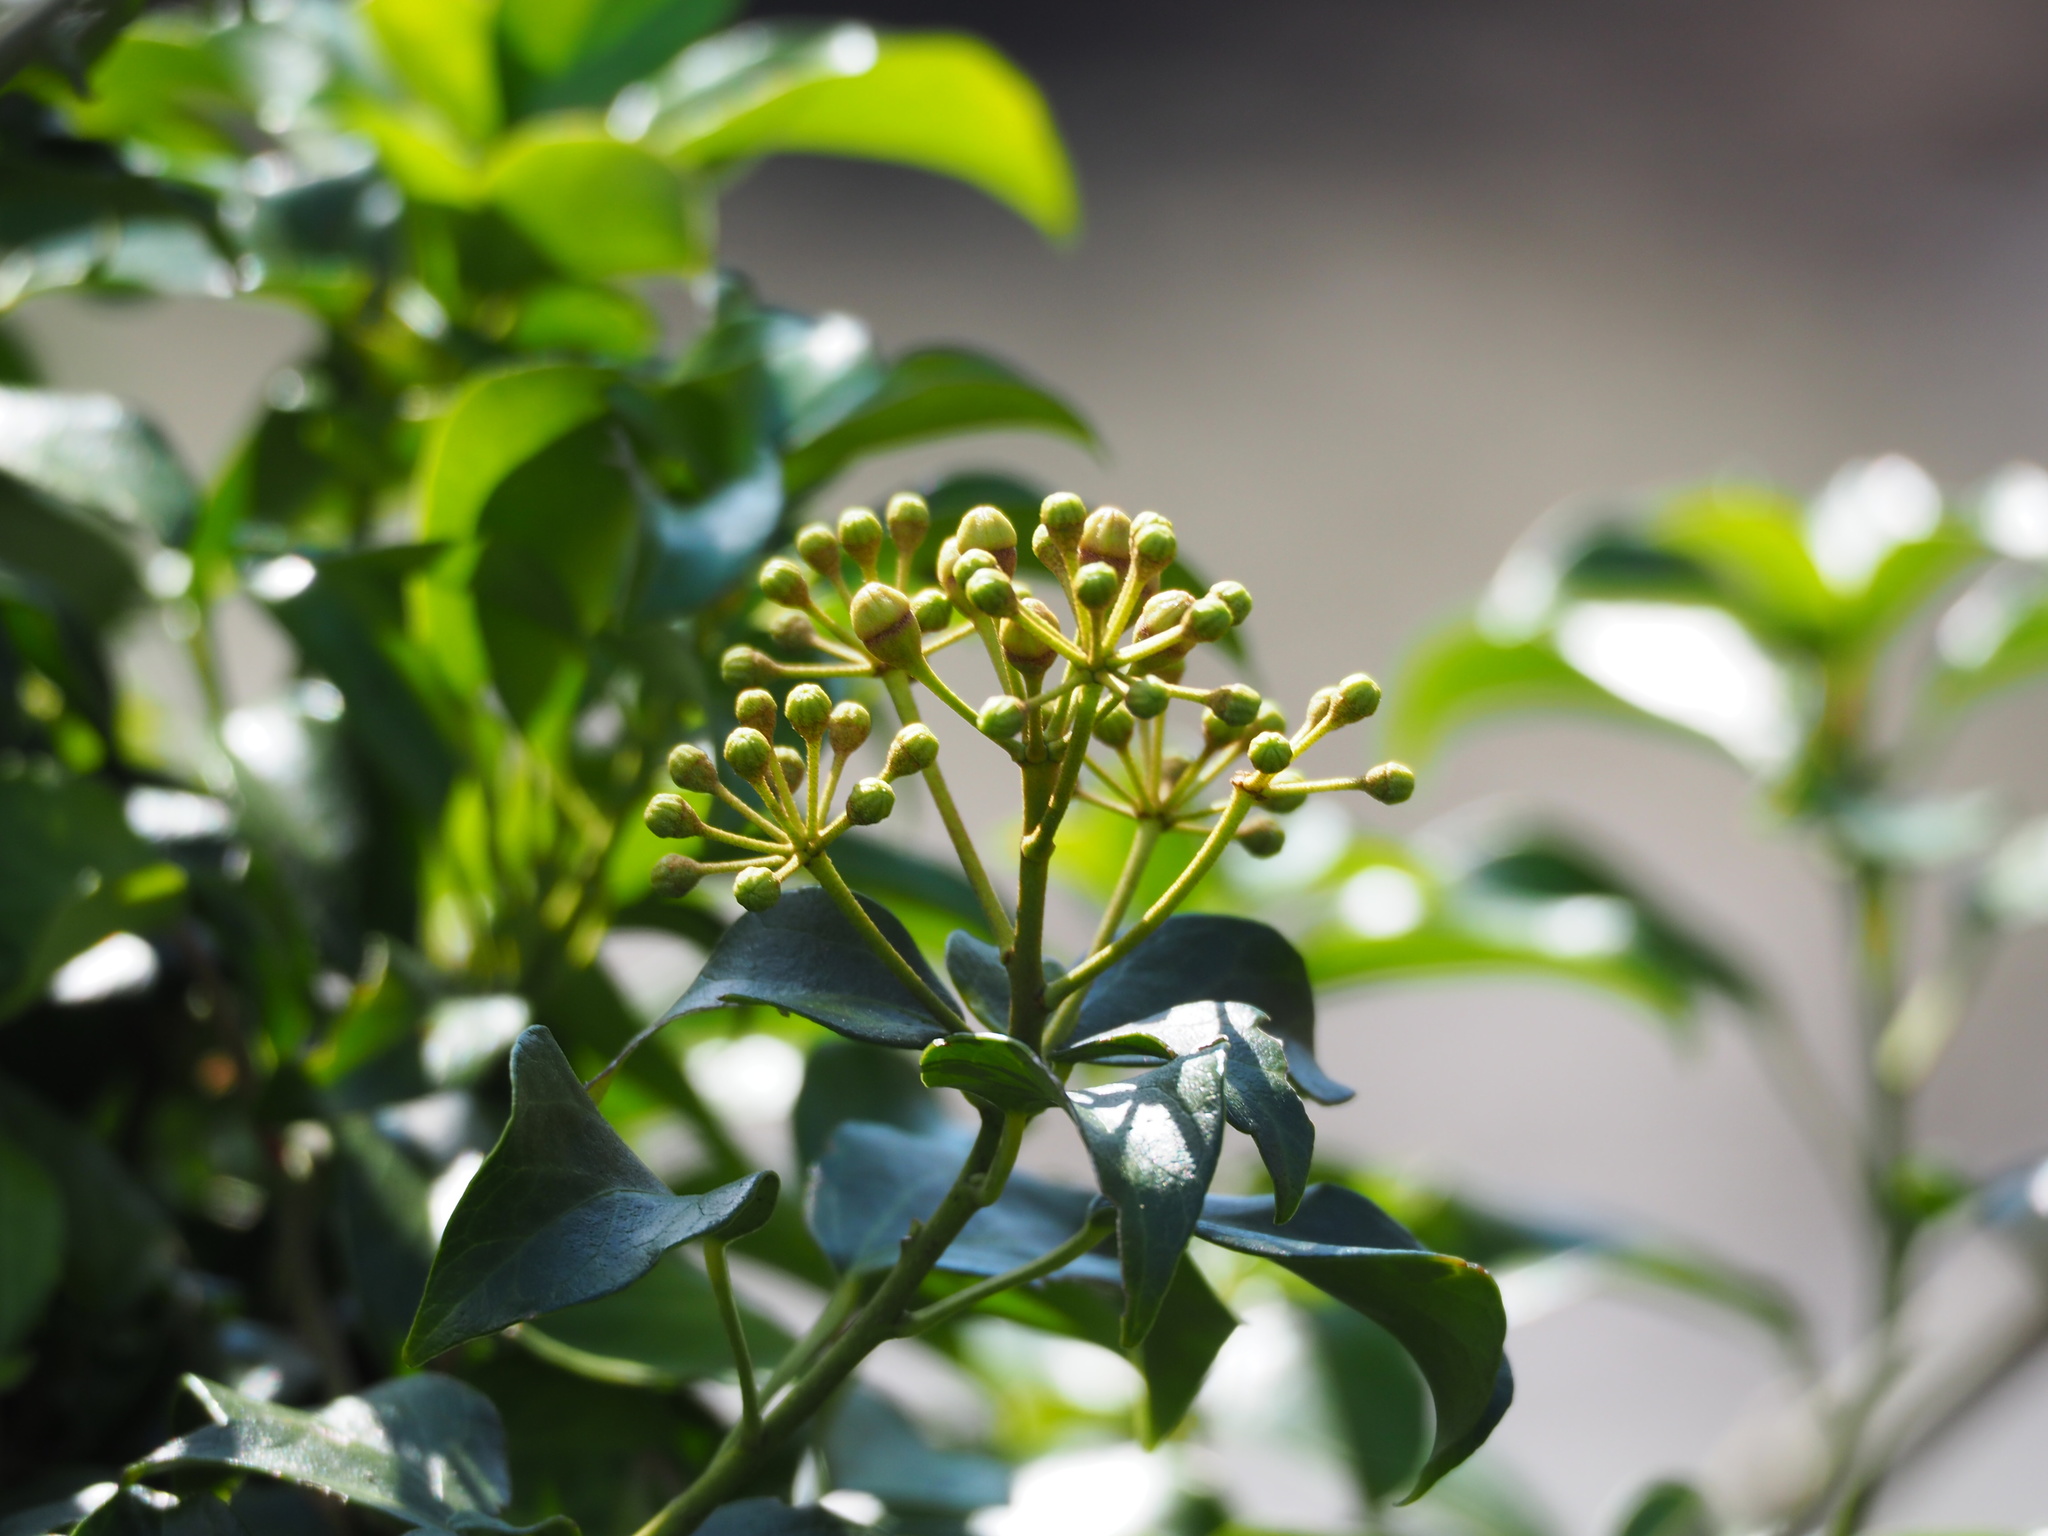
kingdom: Plantae
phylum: Tracheophyta
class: Magnoliopsida
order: Apiales
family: Araliaceae
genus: Hedera
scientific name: Hedera rhombea
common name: Japanese ivy
